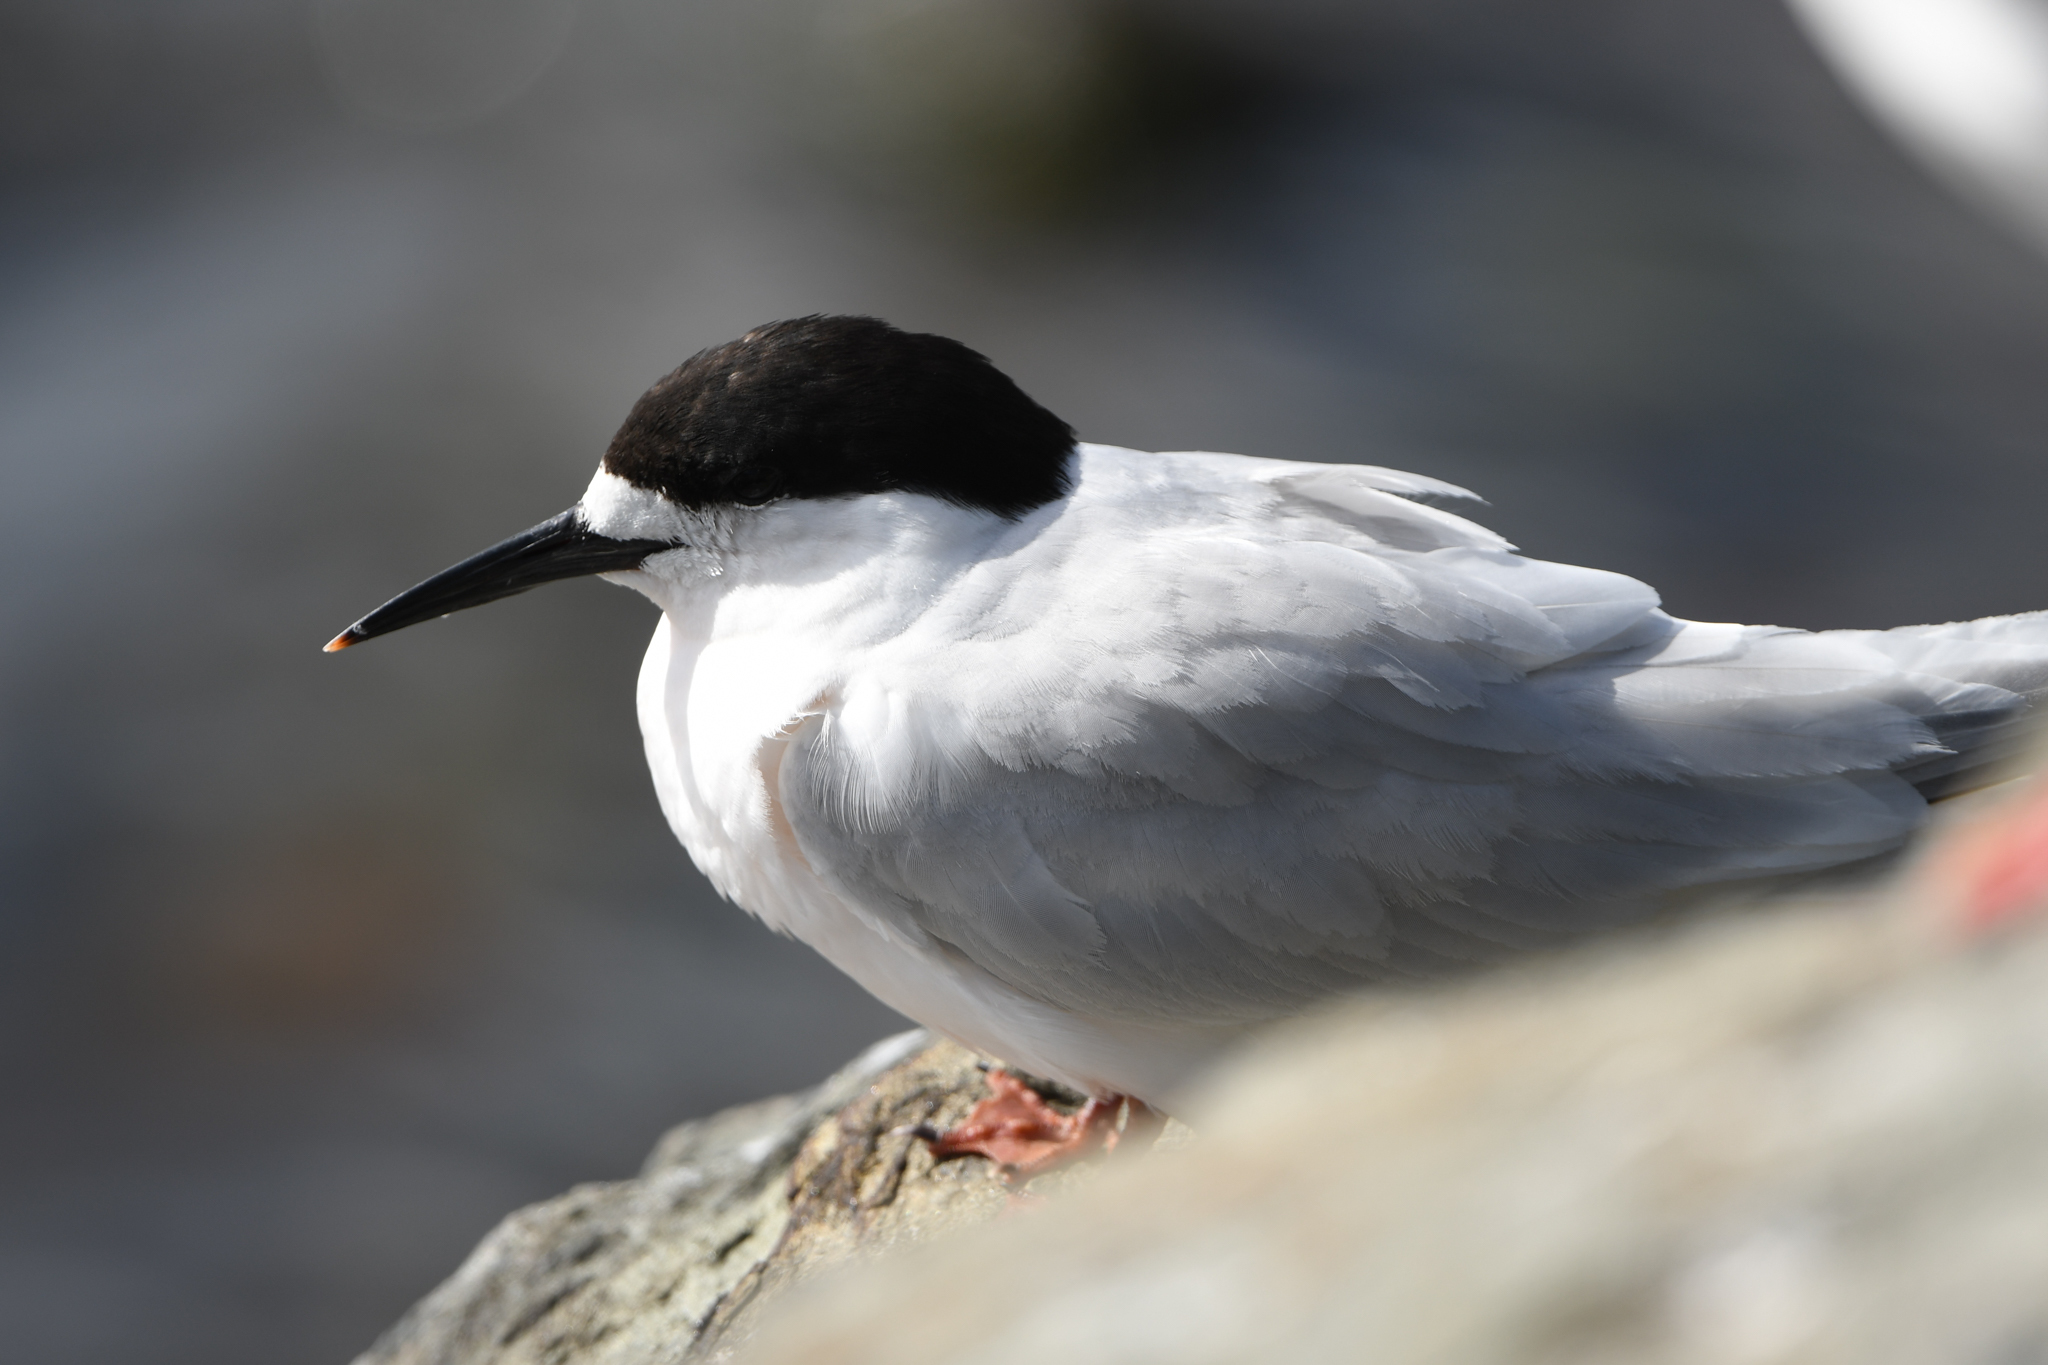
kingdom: Animalia
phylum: Chordata
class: Aves
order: Charadriiformes
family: Laridae
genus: Sterna
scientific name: Sterna striata
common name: White-fronted tern
